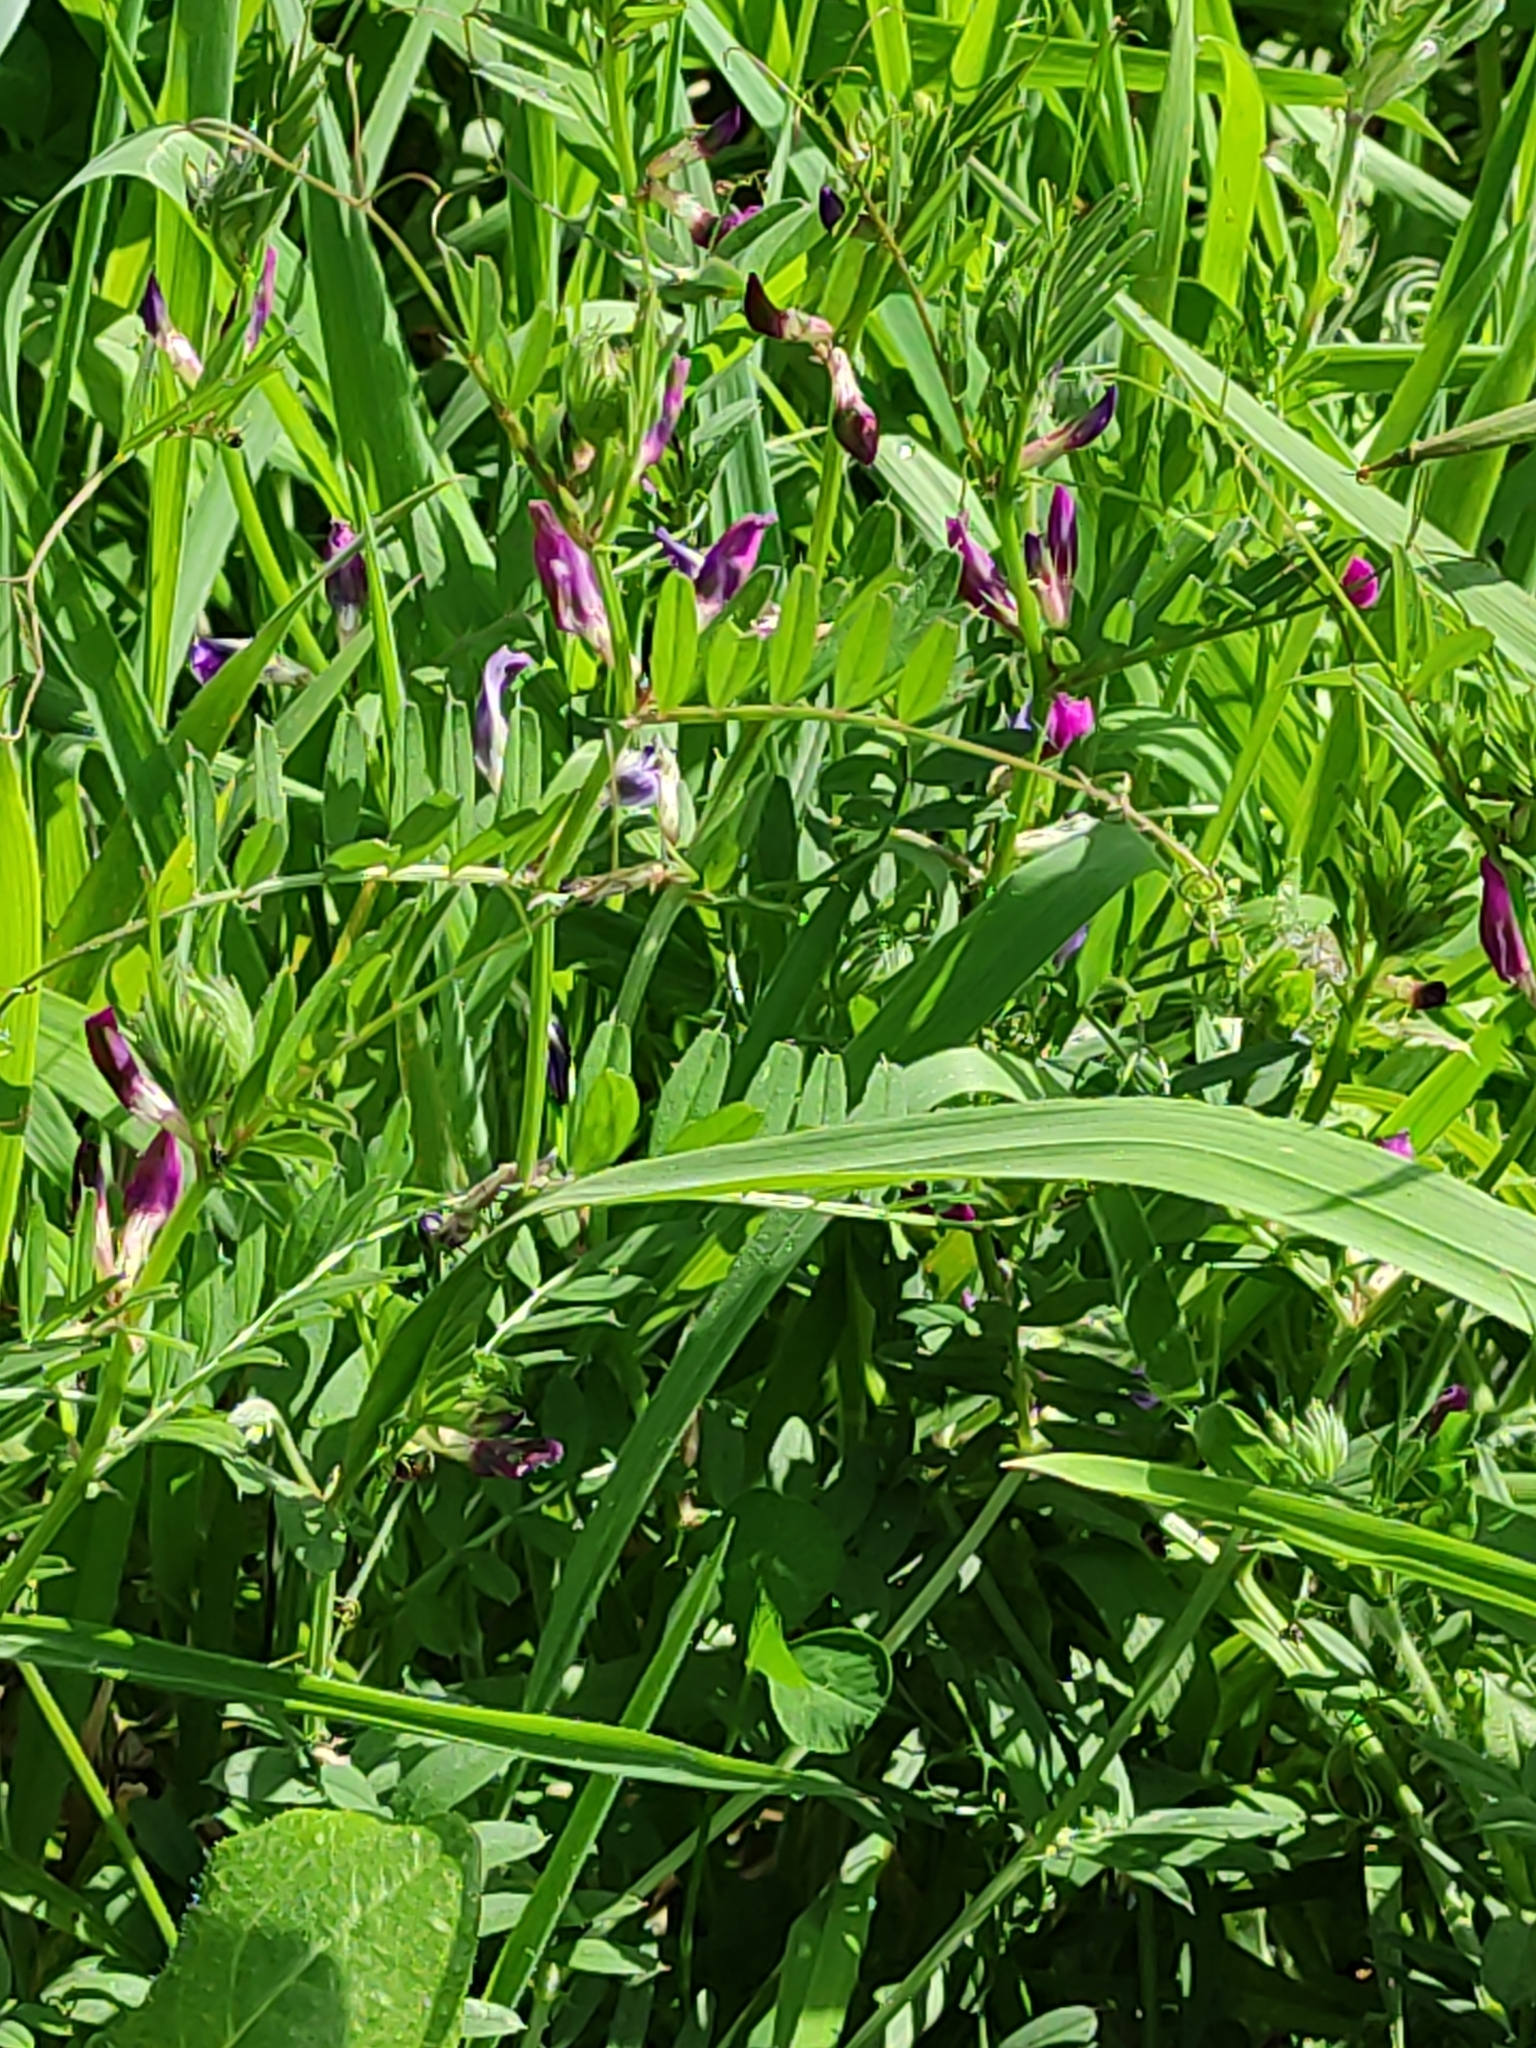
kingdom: Plantae
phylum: Tracheophyta
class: Magnoliopsida
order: Fabales
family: Fabaceae
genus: Vicia
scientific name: Vicia sativa
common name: Garden vetch
